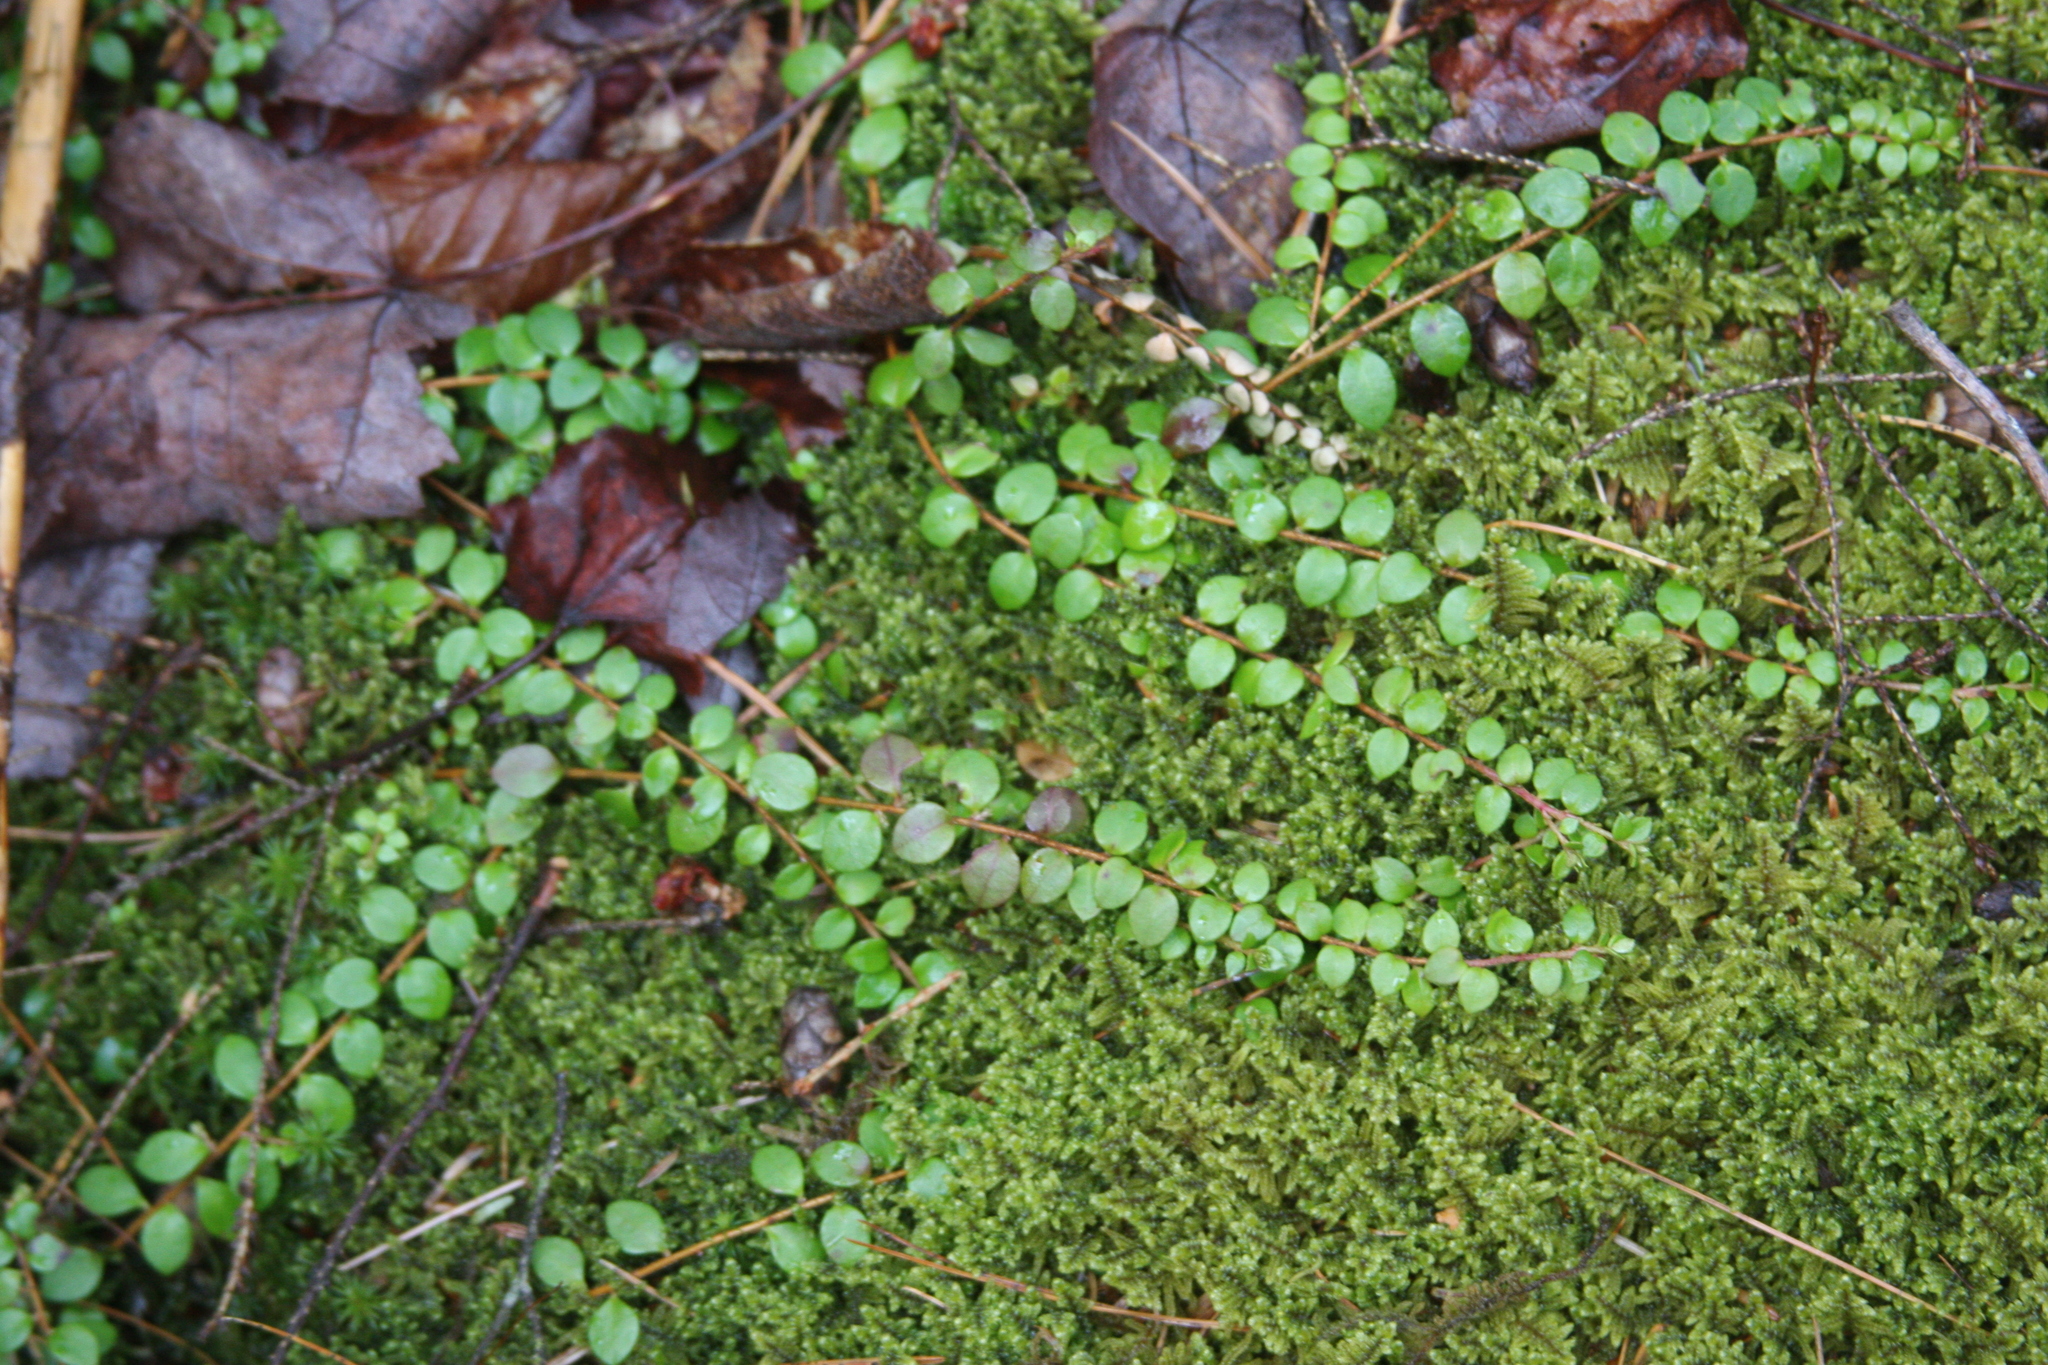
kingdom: Plantae
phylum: Tracheophyta
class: Magnoliopsida
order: Ericales
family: Ericaceae
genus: Gaultheria
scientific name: Gaultheria hispidula
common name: Cancer wintergreen
